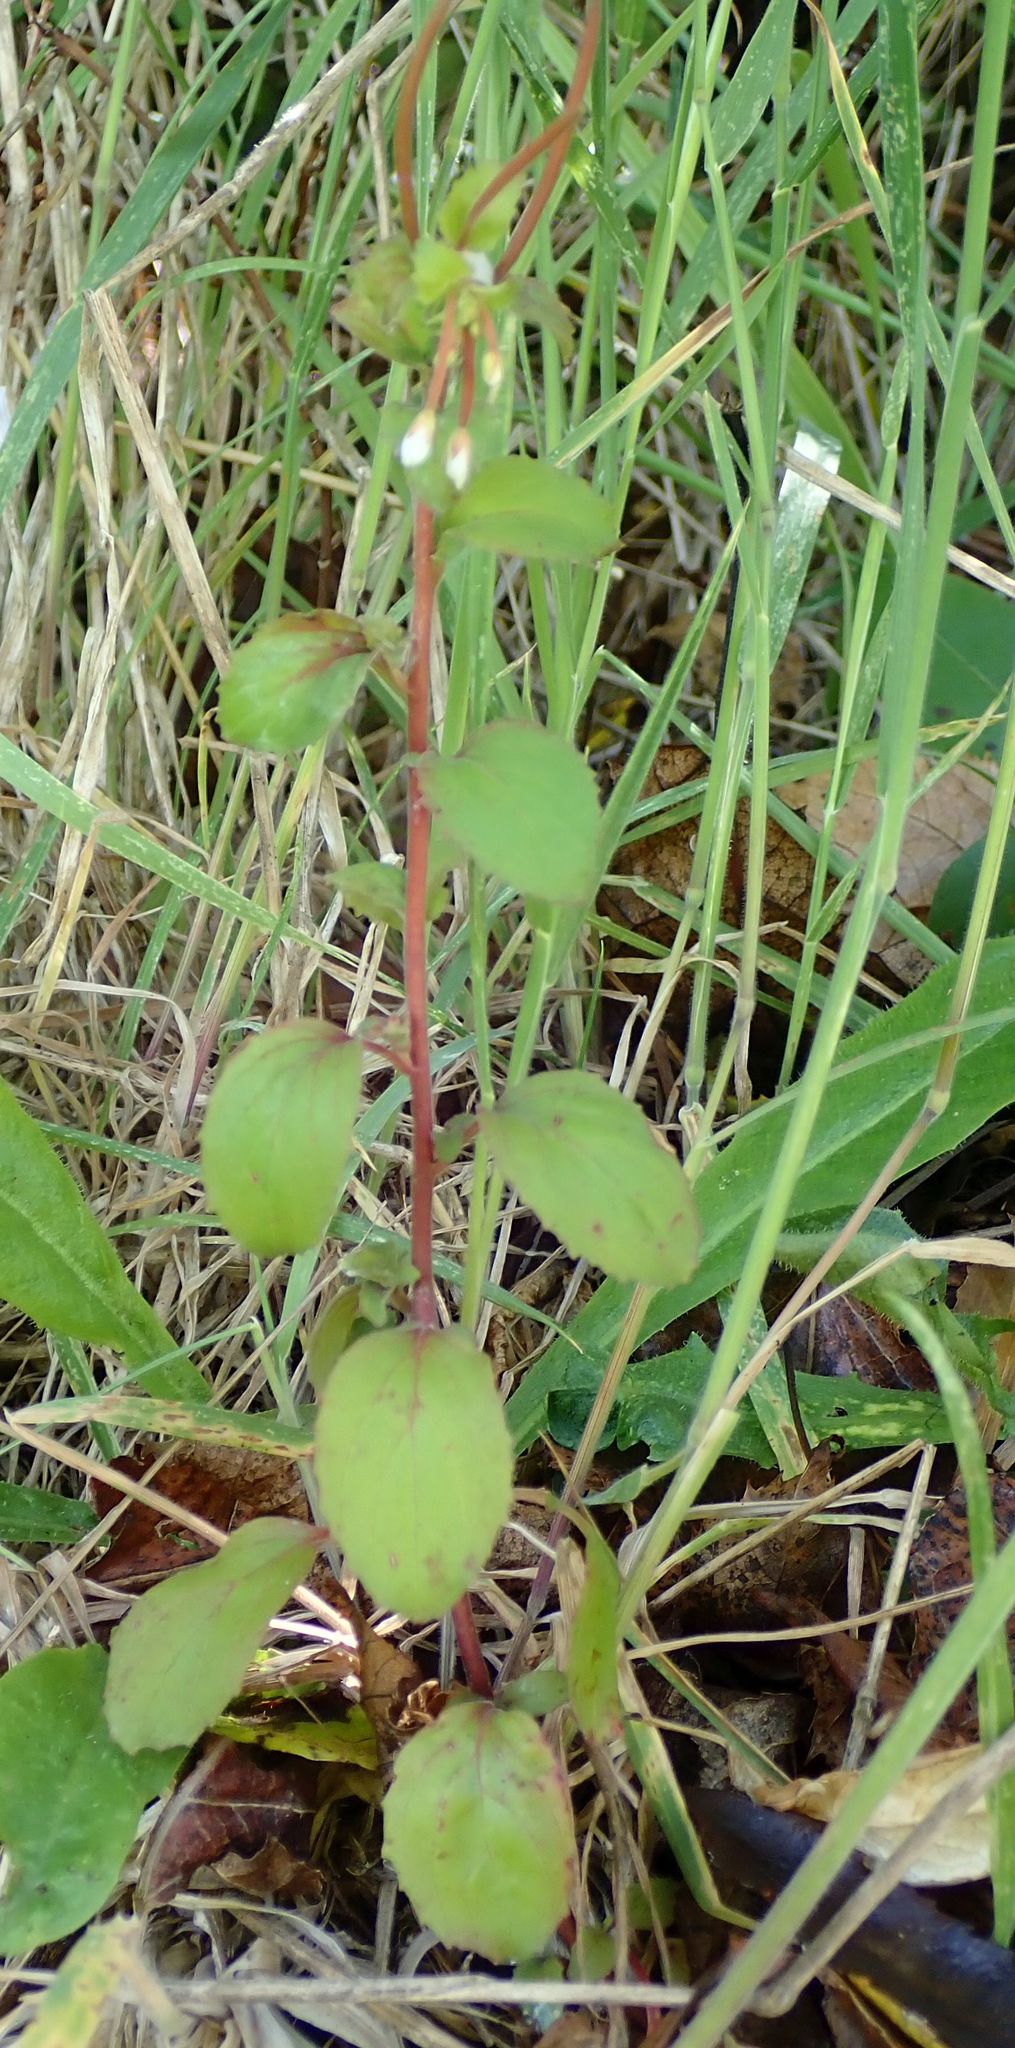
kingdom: Plantae
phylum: Tracheophyta
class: Magnoliopsida
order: Myrtales
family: Onagraceae
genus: Epilobium
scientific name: Epilobium pubens
